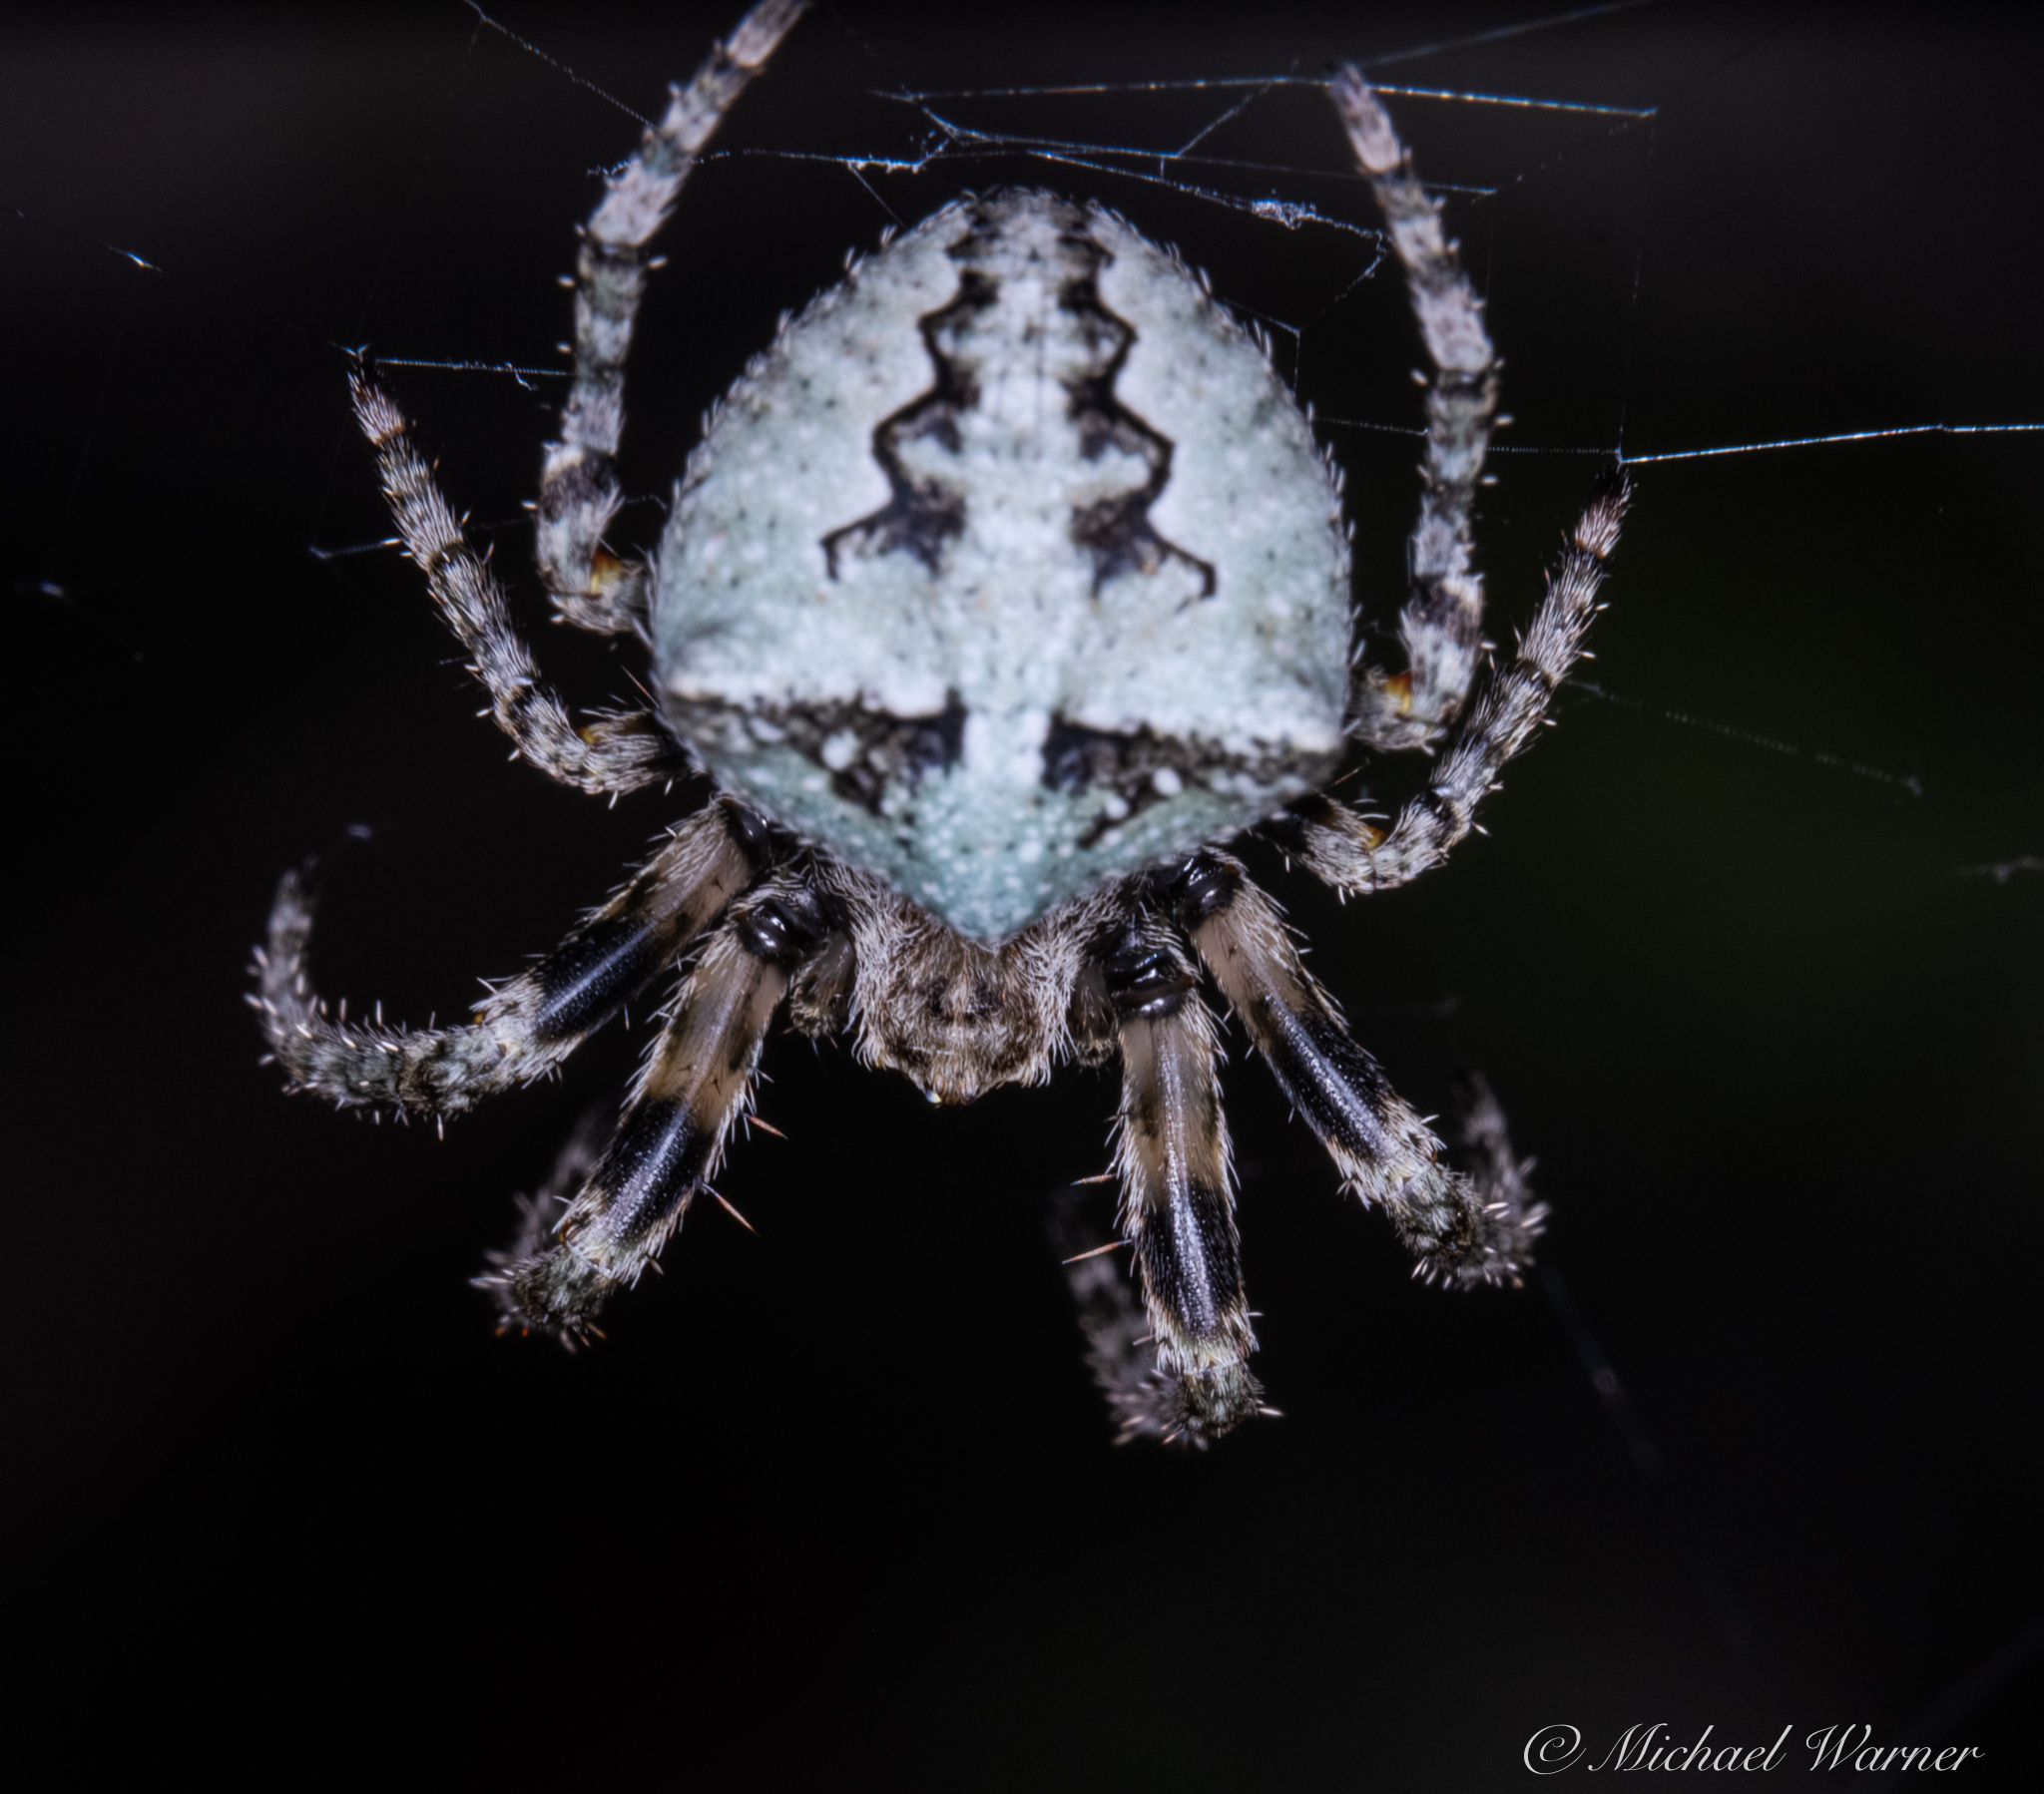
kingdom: Animalia
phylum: Arthropoda
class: Arachnida
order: Araneae
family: Araneidae
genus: Araneus
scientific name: Araneus andrewsi
